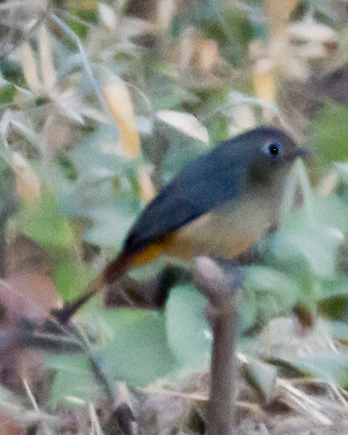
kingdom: Animalia
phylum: Chordata
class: Aves
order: Passeriformes
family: Muscicapidae
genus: Phoenicurus
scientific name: Phoenicurus frontalis
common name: Blue-fronted redstart
